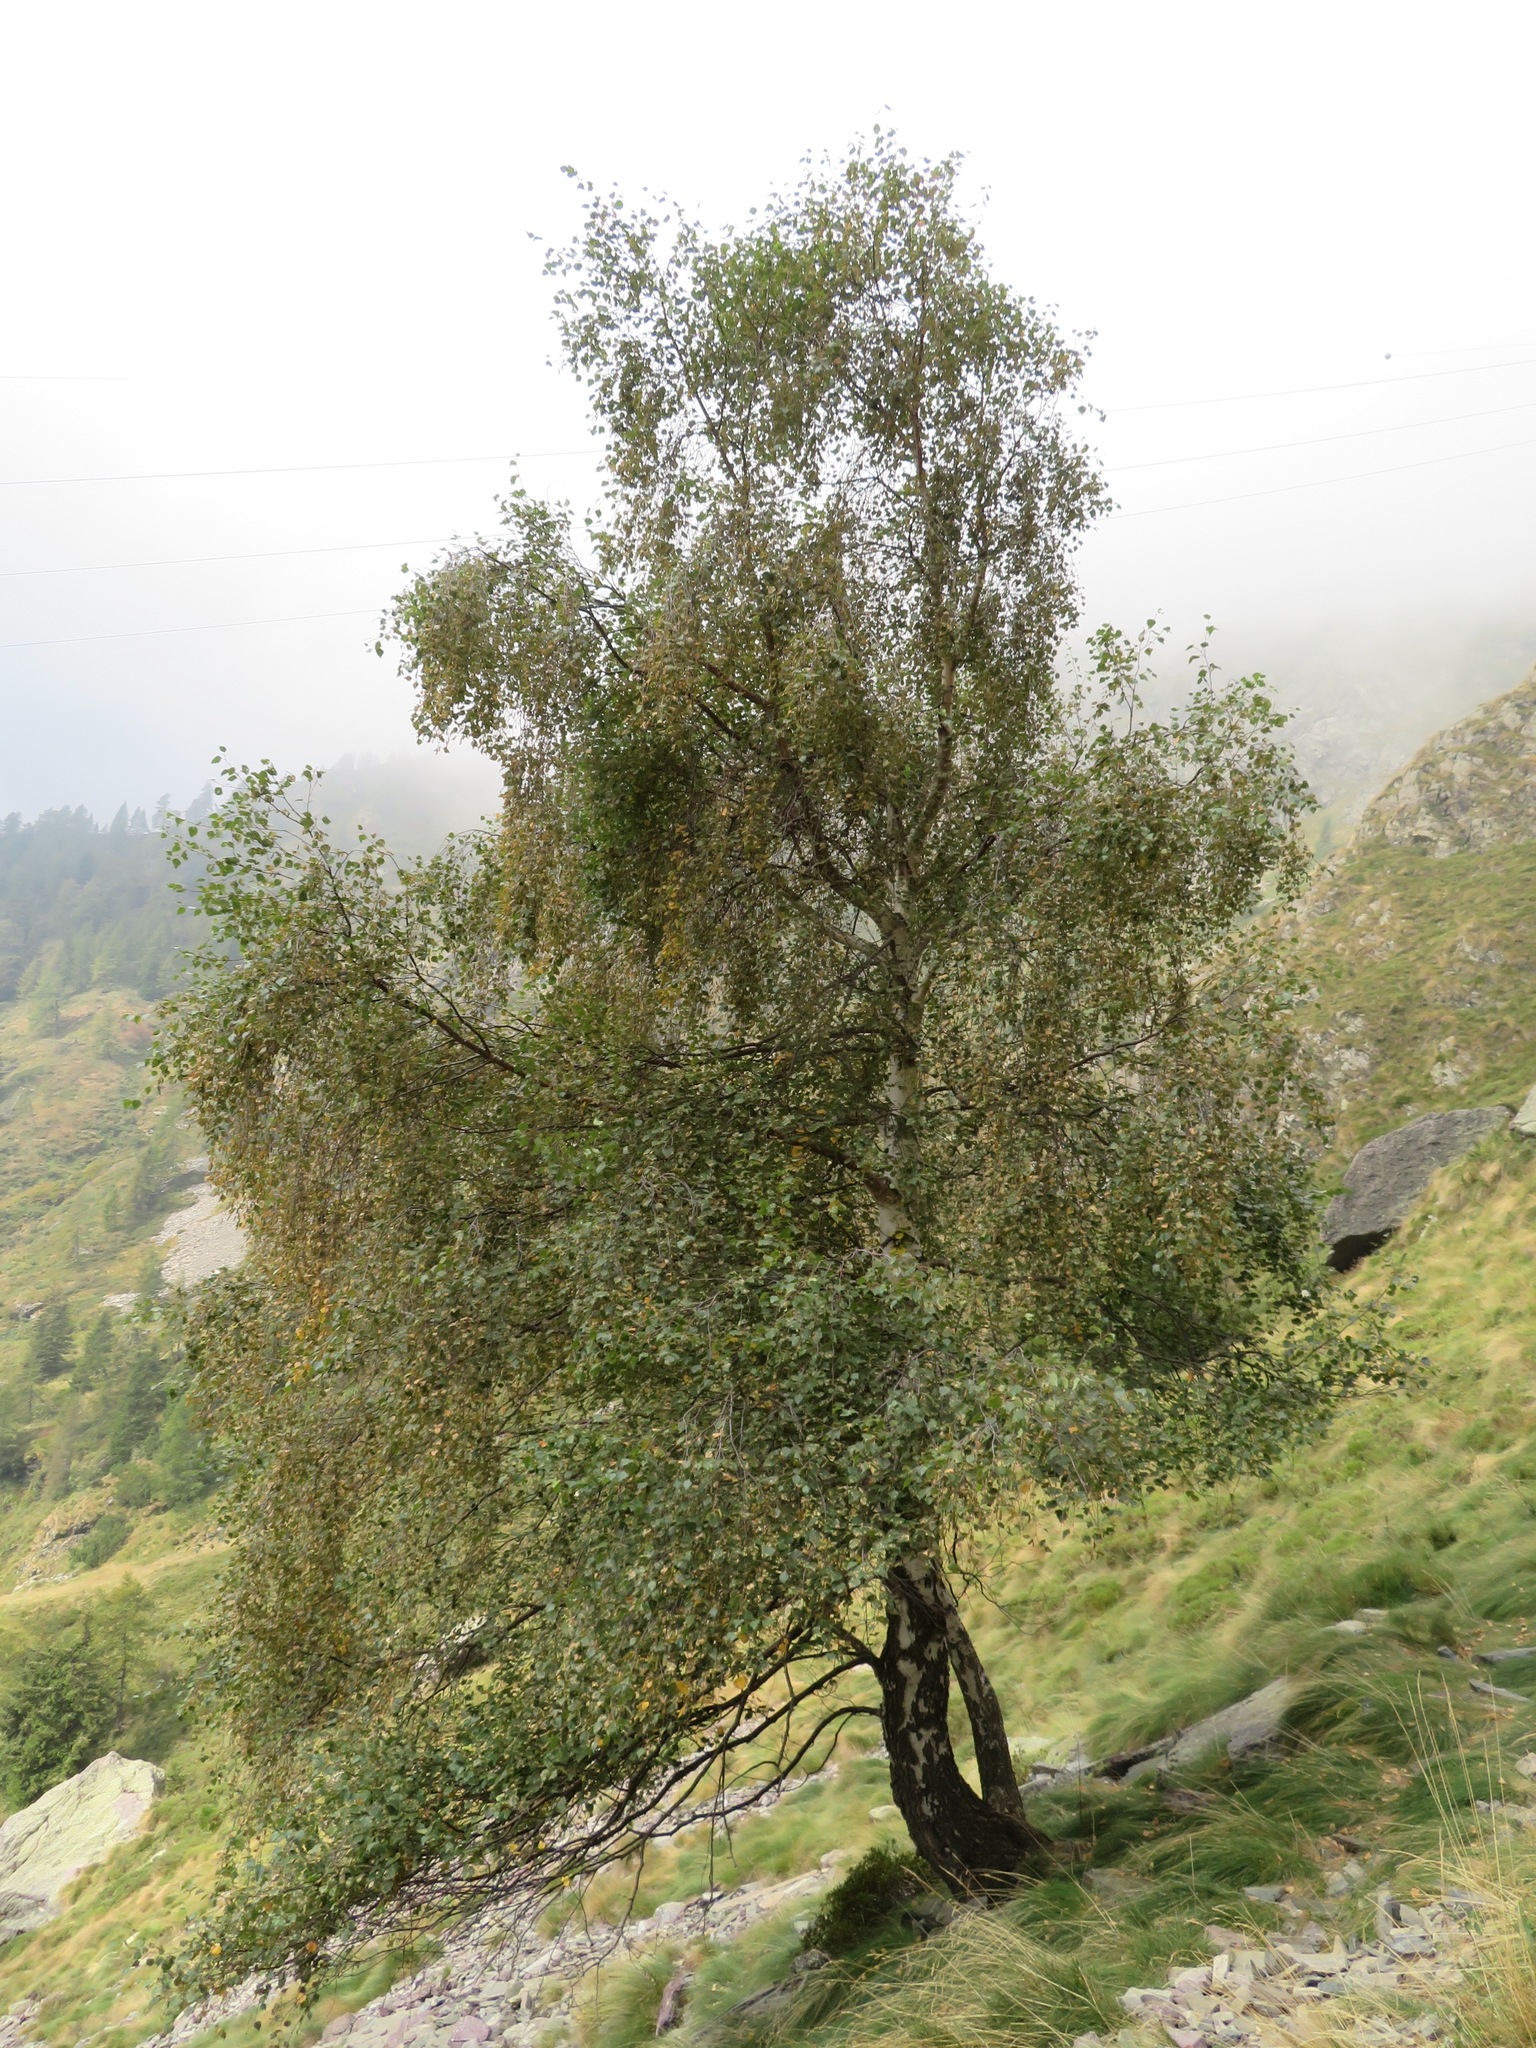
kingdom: Plantae
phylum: Tracheophyta
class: Magnoliopsida
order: Fagales
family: Betulaceae
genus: Betula
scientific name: Betula pendula
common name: Silver birch
